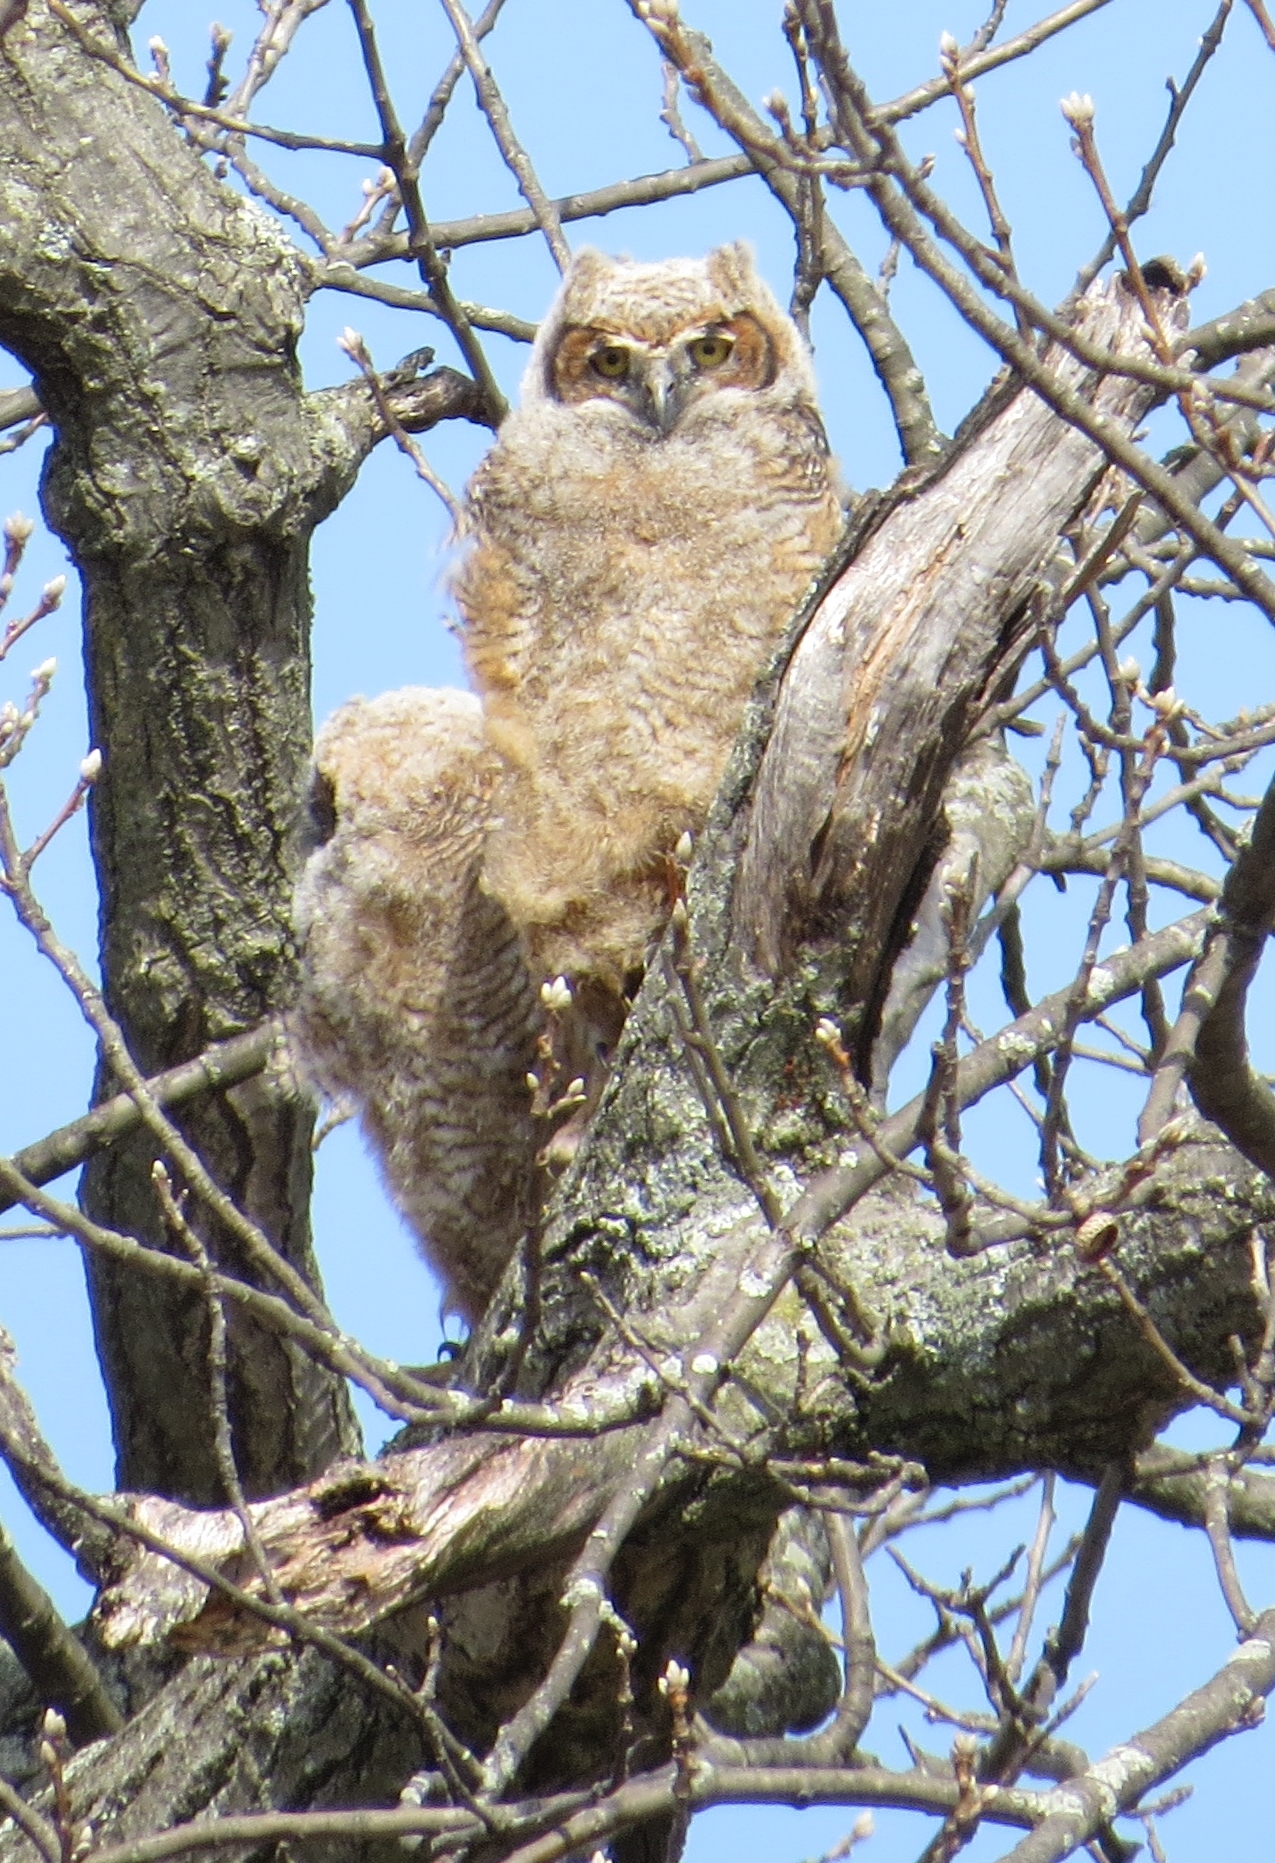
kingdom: Animalia
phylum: Chordata
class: Aves
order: Strigiformes
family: Strigidae
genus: Bubo
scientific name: Bubo virginianus
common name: Great horned owl
